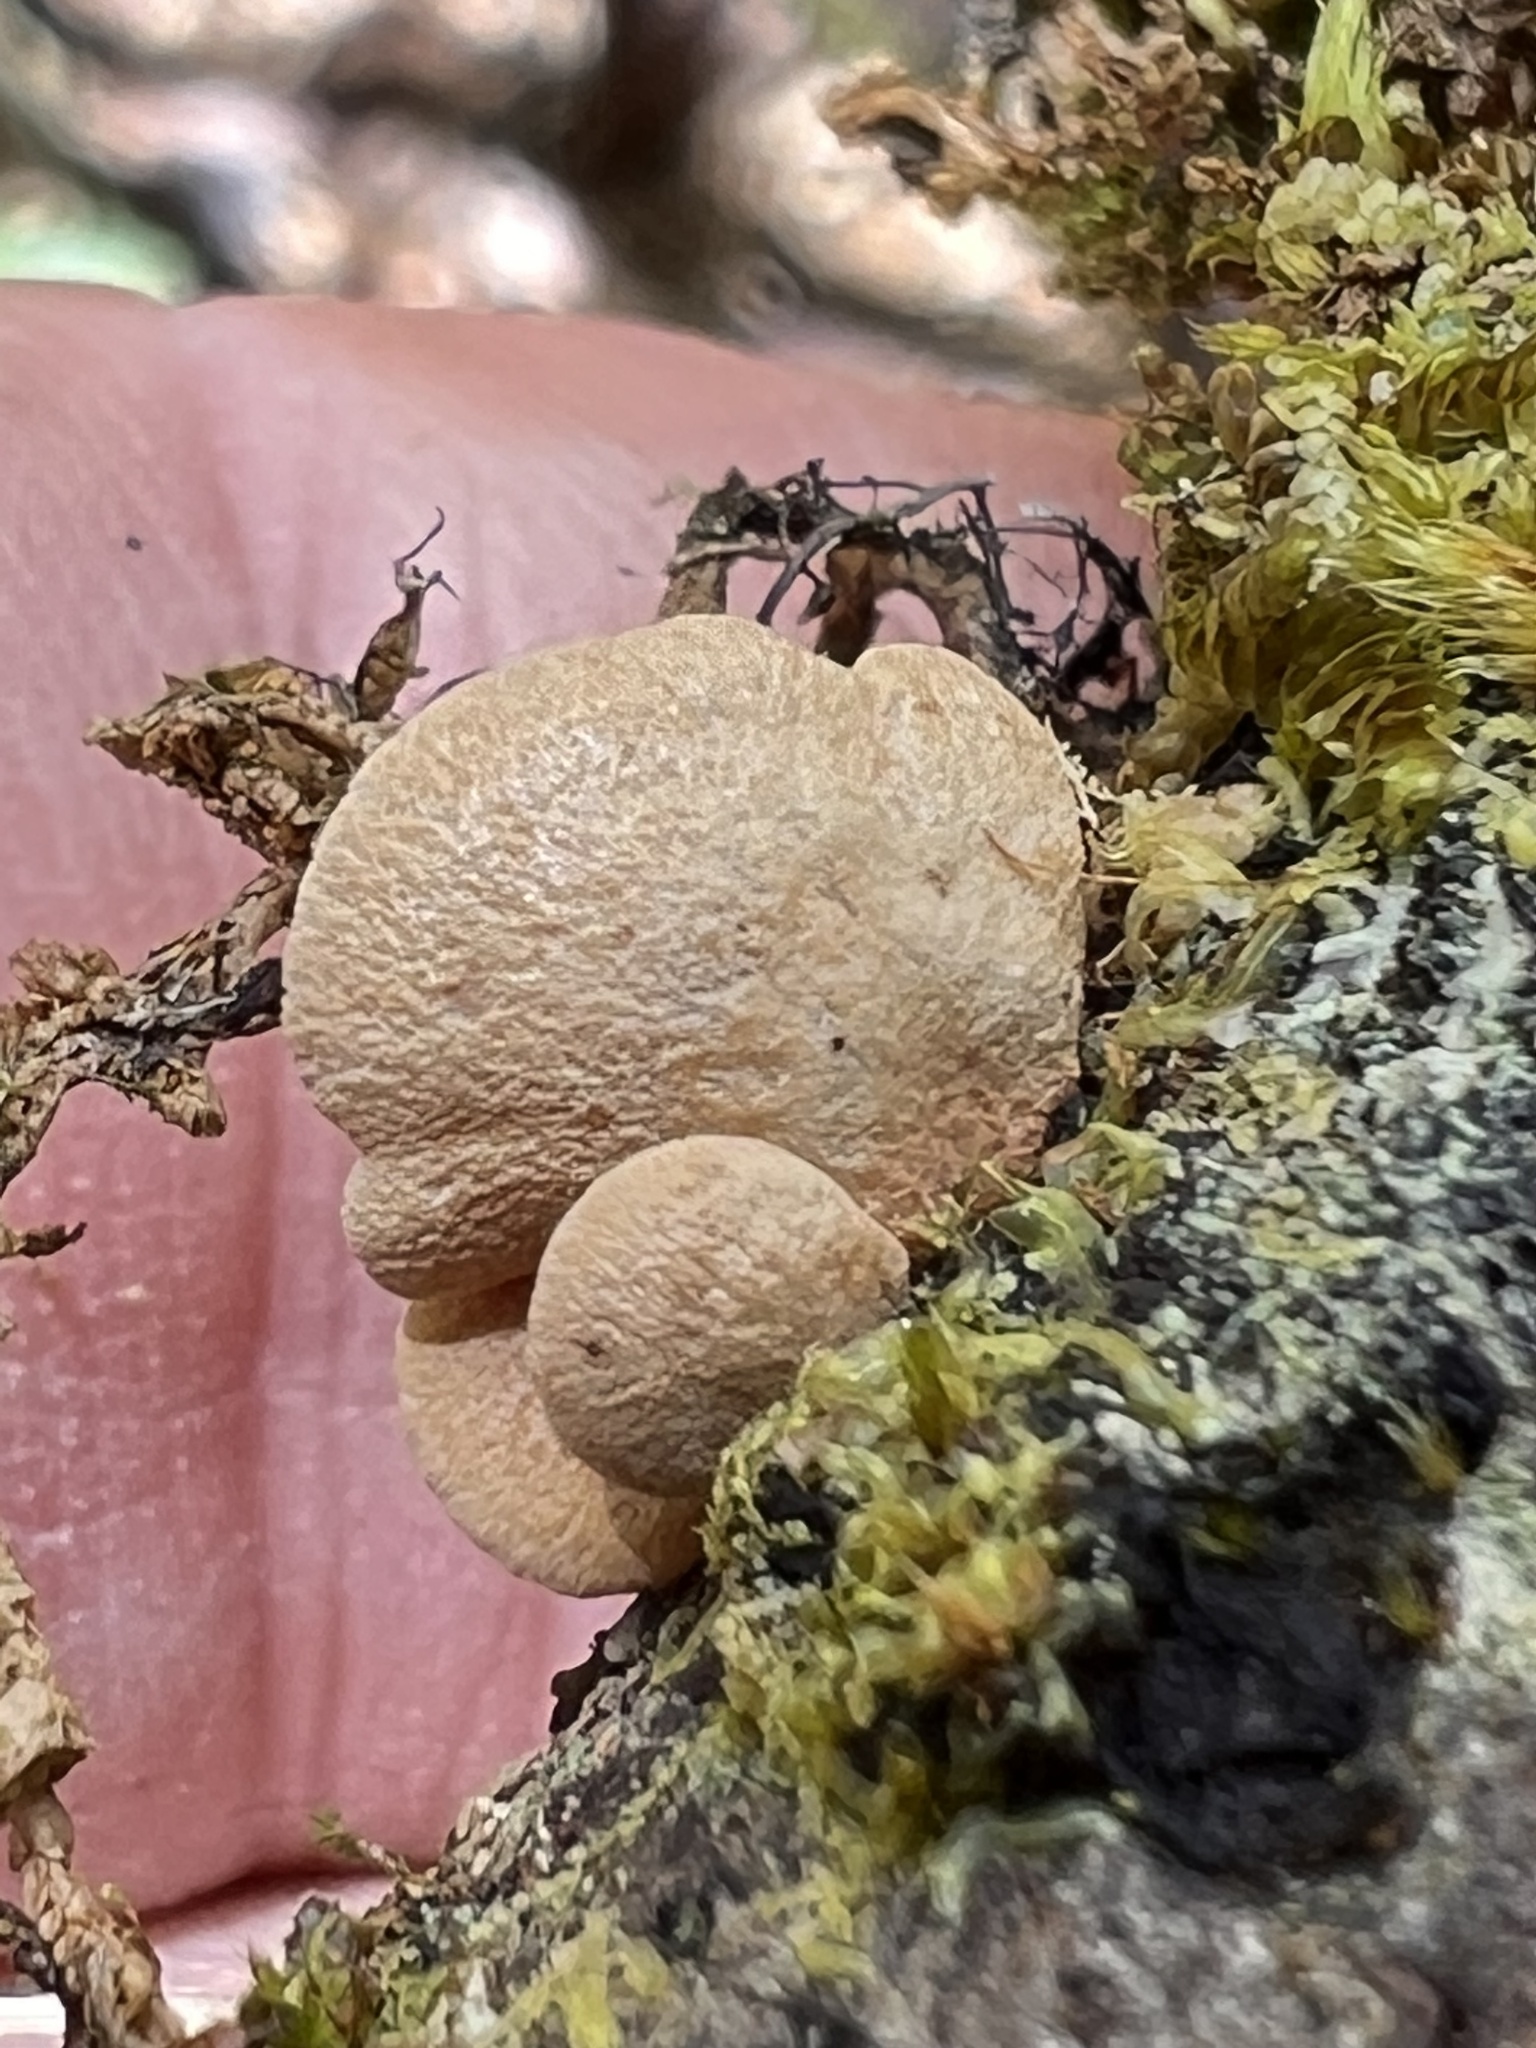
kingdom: Fungi
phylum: Basidiomycota
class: Agaricomycetes
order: Agaricales
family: Mycenaceae
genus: Panellus
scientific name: Panellus stipticus
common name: Bitter oysterling
